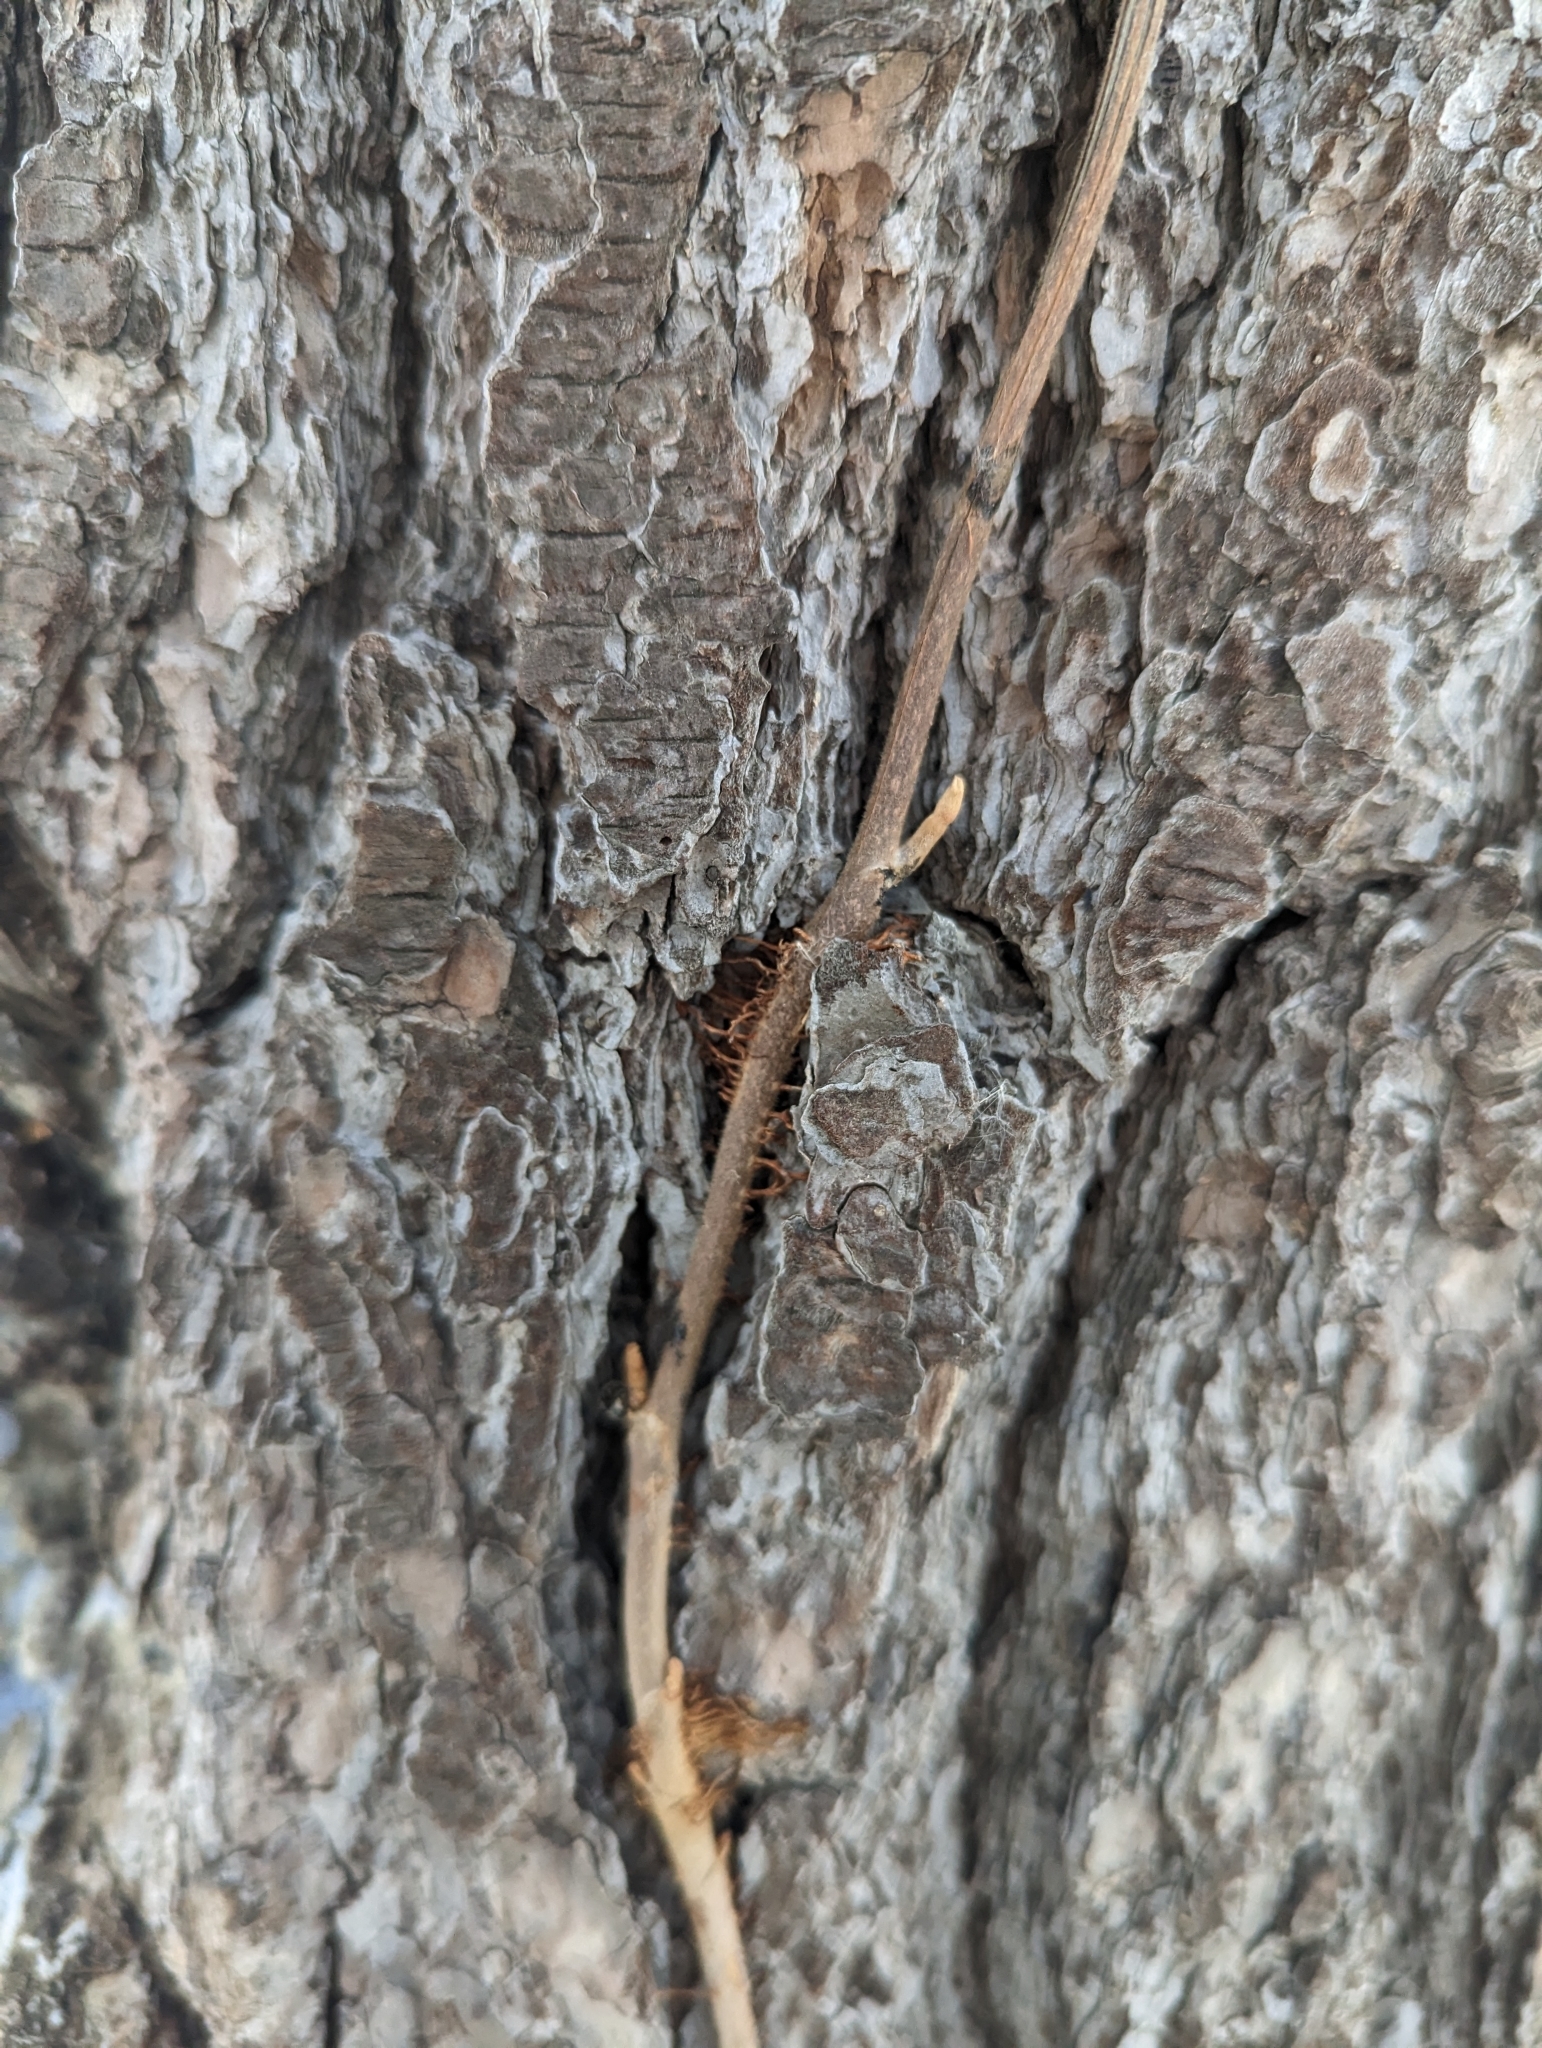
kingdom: Plantae
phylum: Tracheophyta
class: Magnoliopsida
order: Sapindales
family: Anacardiaceae
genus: Toxicodendron
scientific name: Toxicodendron radicans
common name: Poison ivy
